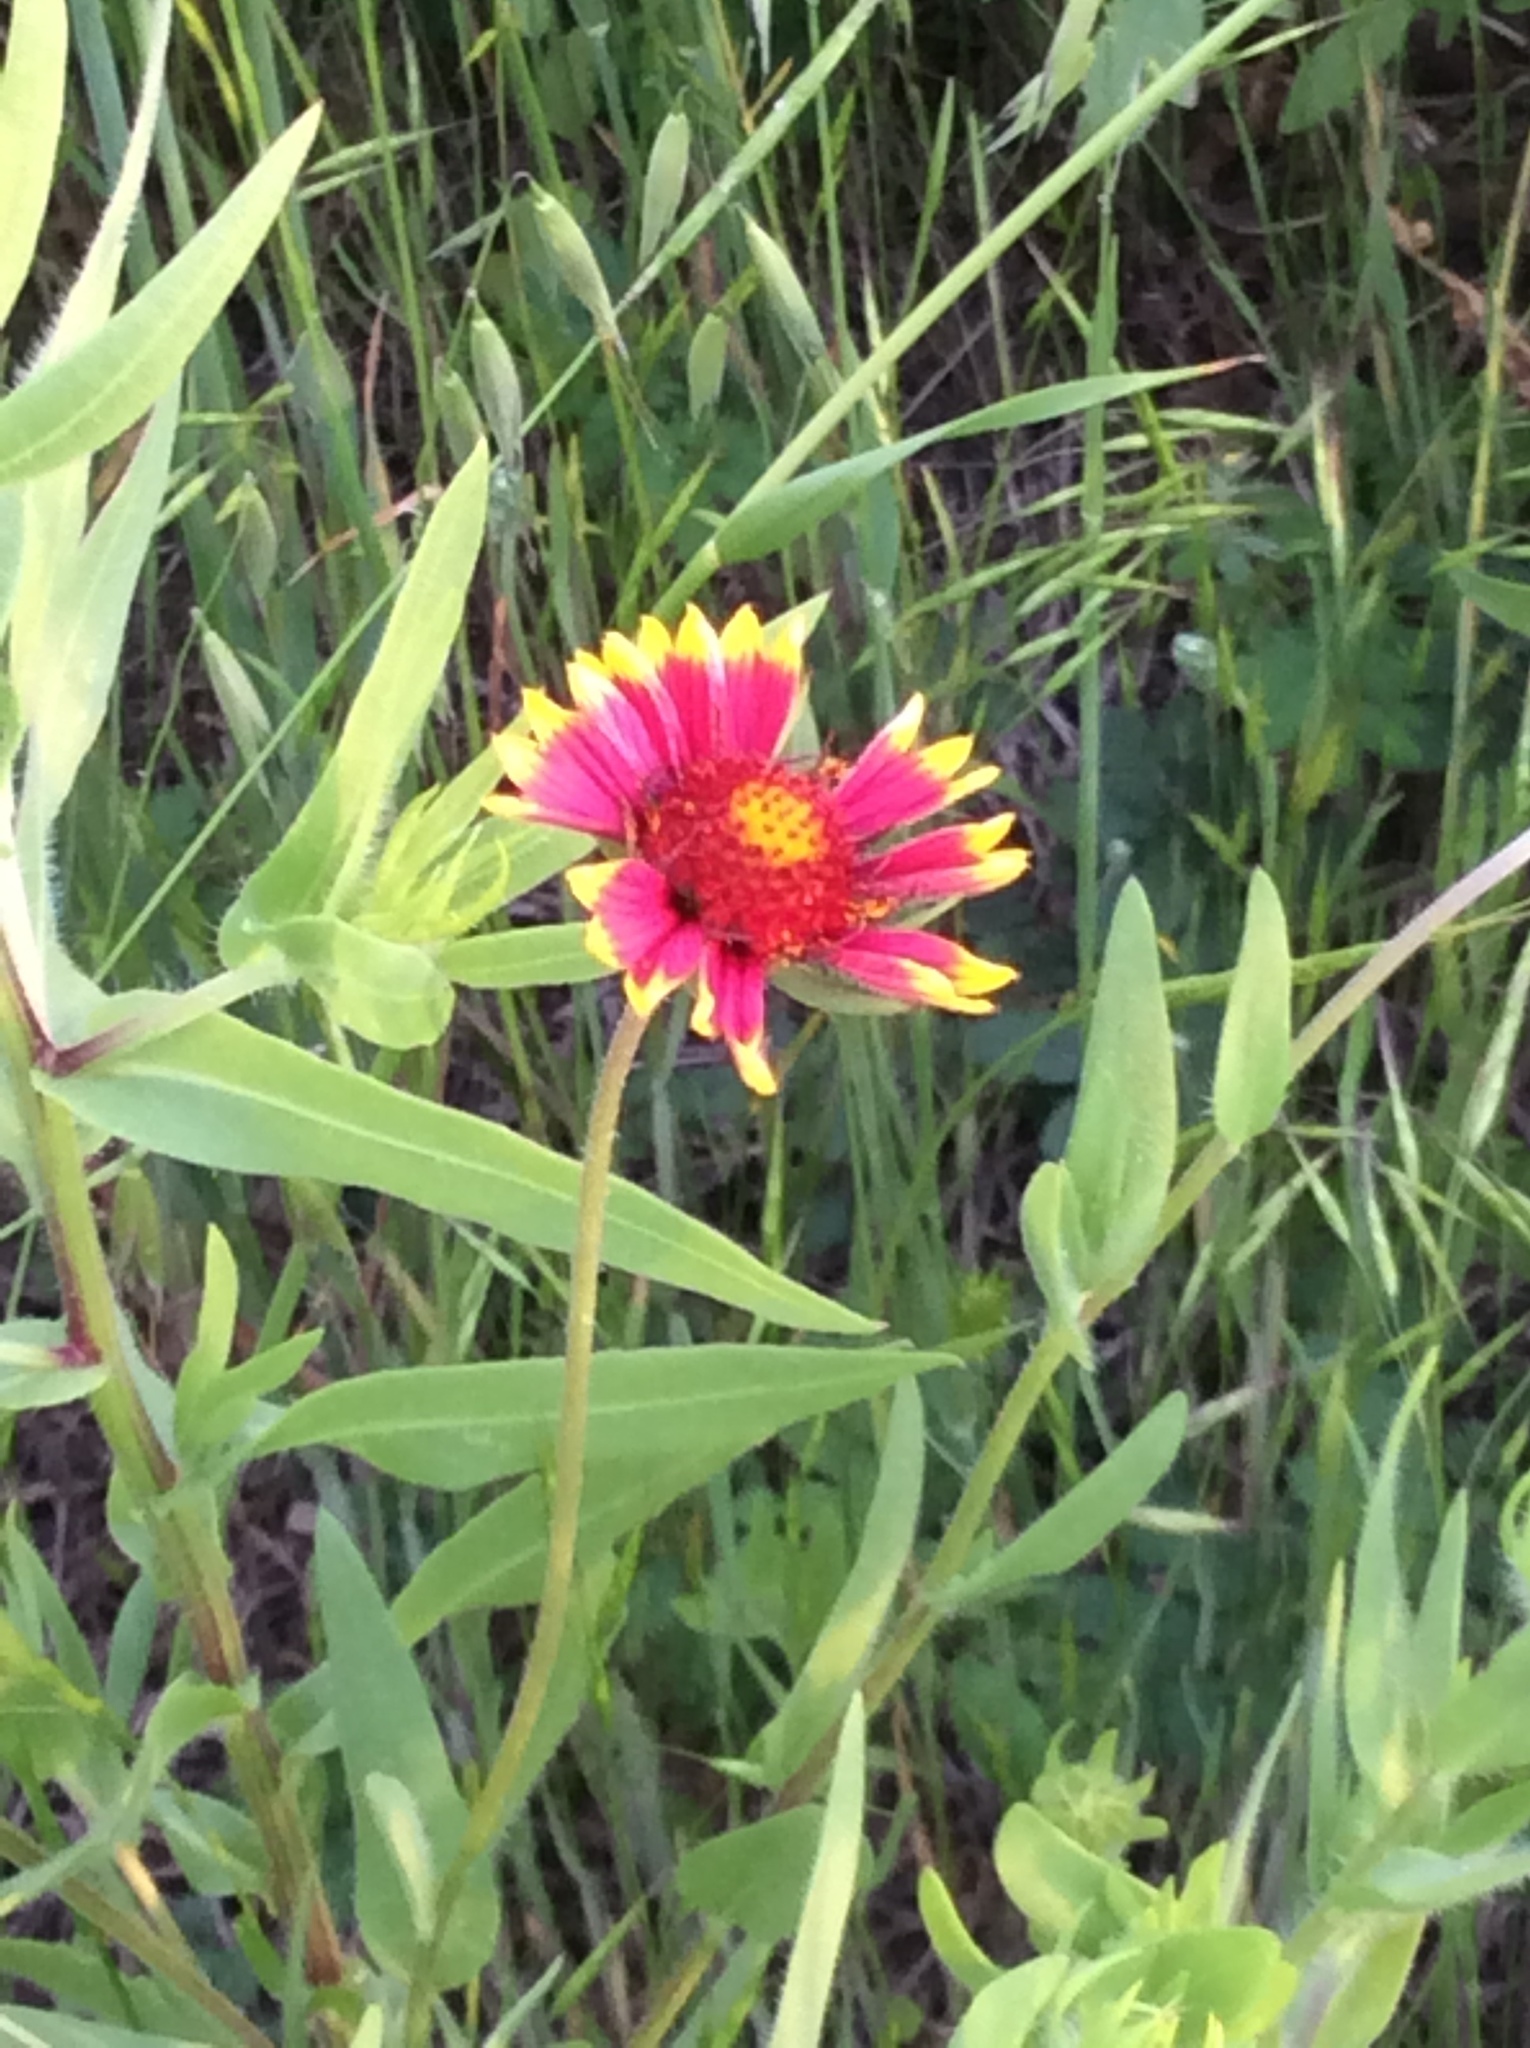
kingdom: Plantae
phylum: Tracheophyta
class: Magnoliopsida
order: Asterales
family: Asteraceae
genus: Gaillardia
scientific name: Gaillardia pulchella
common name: Firewheel
